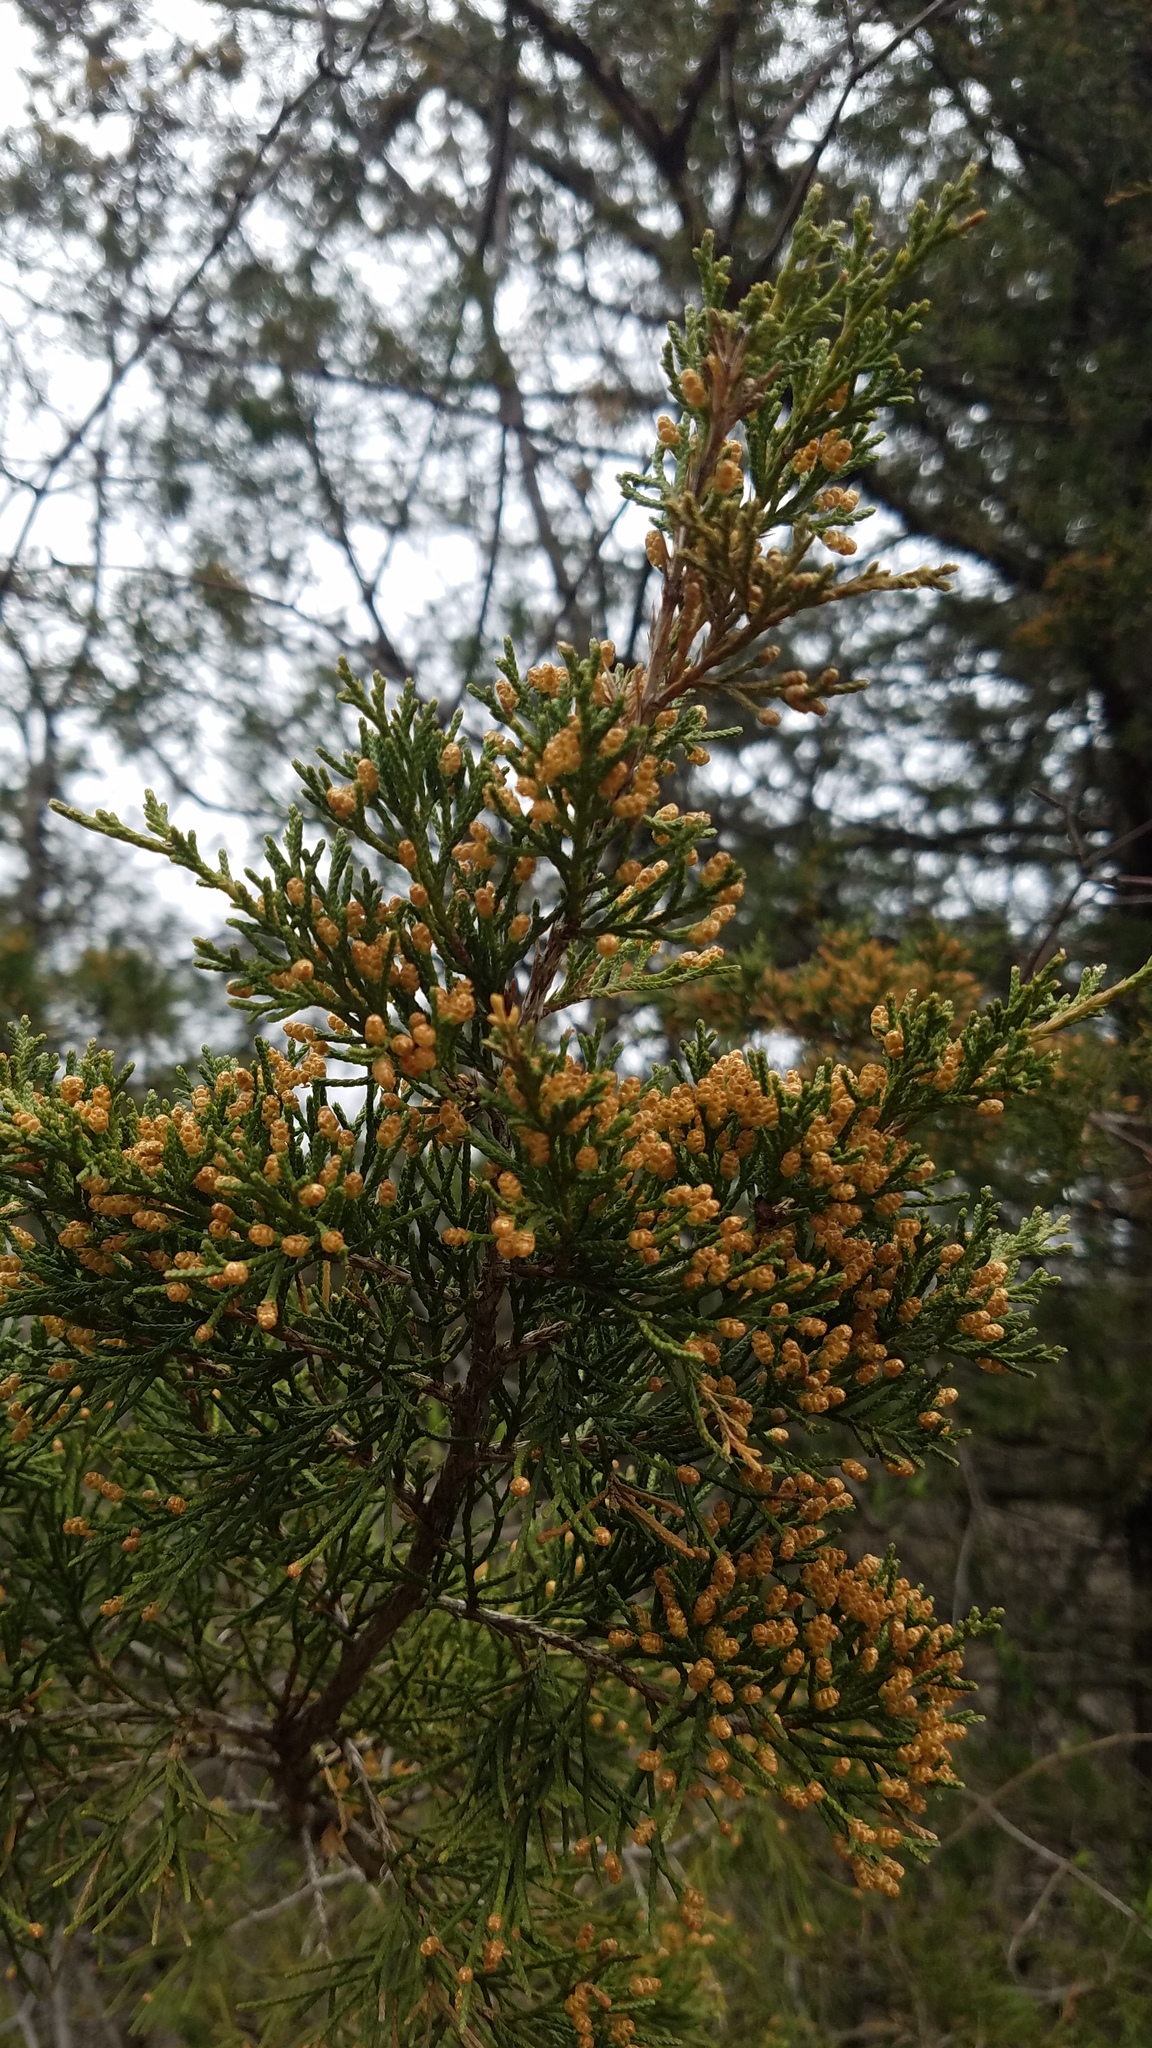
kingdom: Plantae
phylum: Tracheophyta
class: Pinopsida
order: Pinales
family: Cupressaceae
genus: Juniperus
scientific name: Juniperus virginiana
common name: Red juniper
